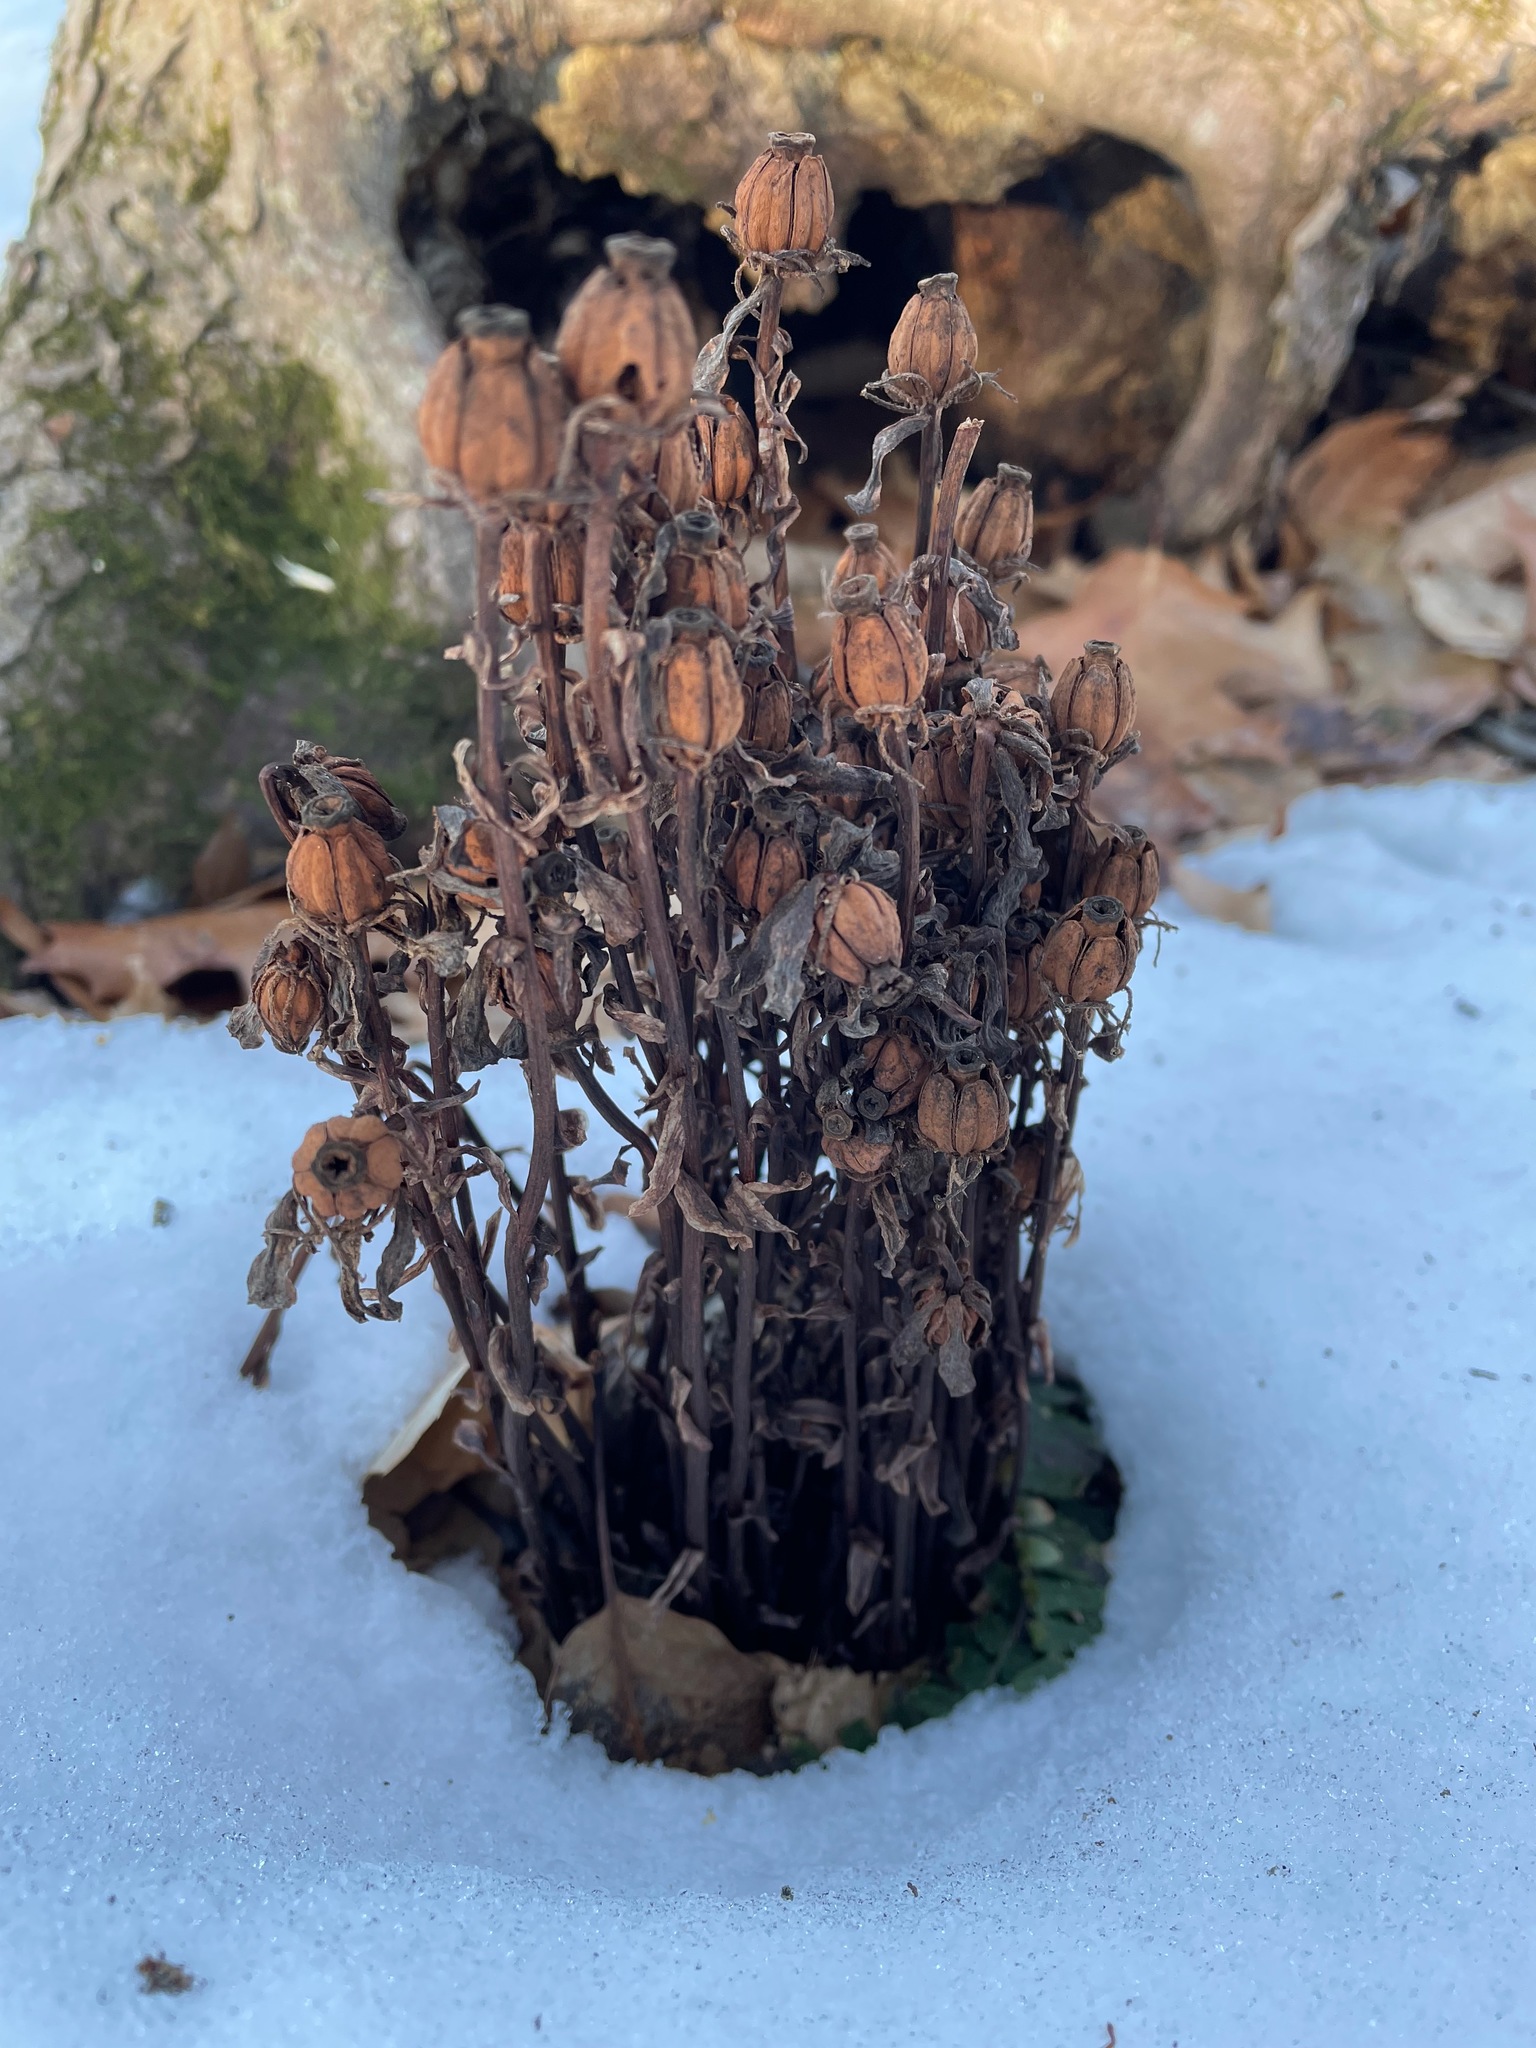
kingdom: Plantae
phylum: Tracheophyta
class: Magnoliopsida
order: Ericales
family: Ericaceae
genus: Monotropa
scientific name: Monotropa uniflora
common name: Convulsion root
